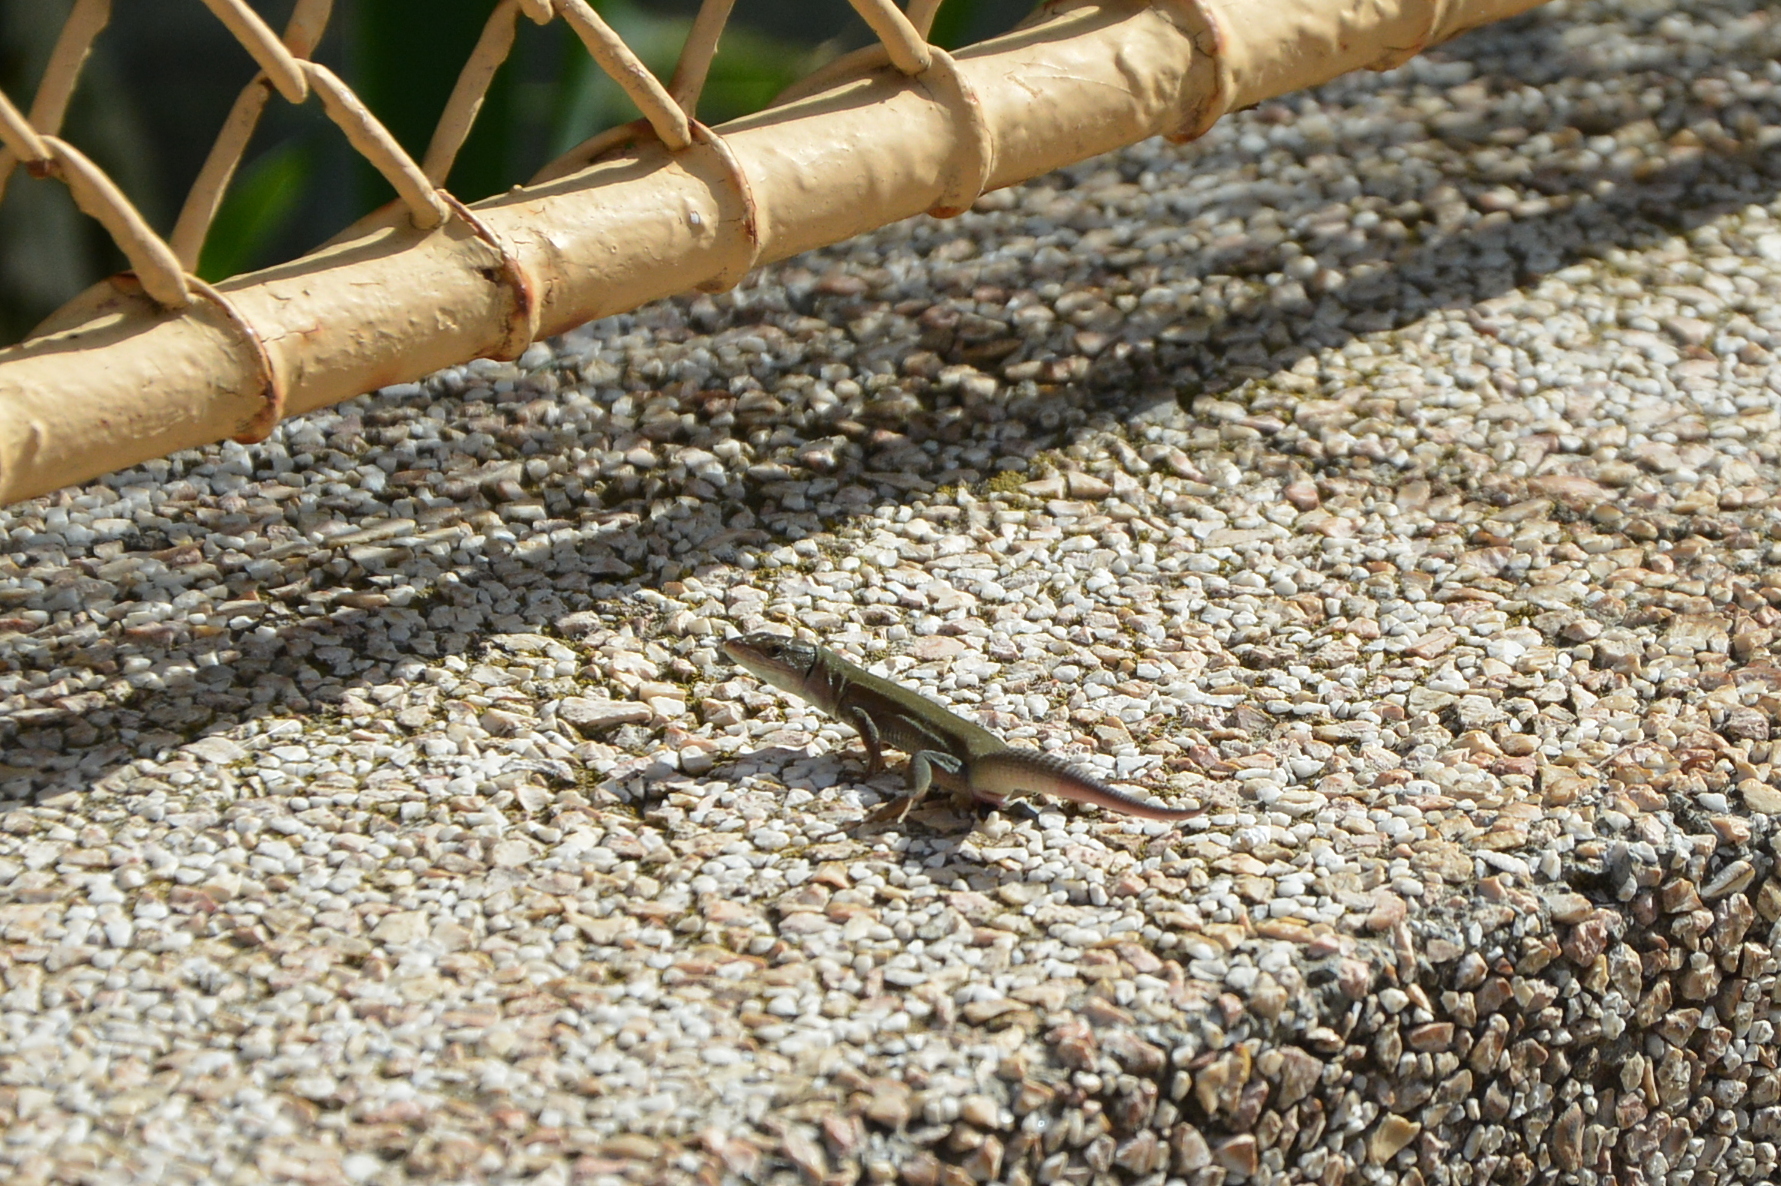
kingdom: Animalia
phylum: Chordata
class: Squamata
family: Lacertidae
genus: Podarcis
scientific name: Podarcis melisellensis
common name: Dalmatian wall lizard
